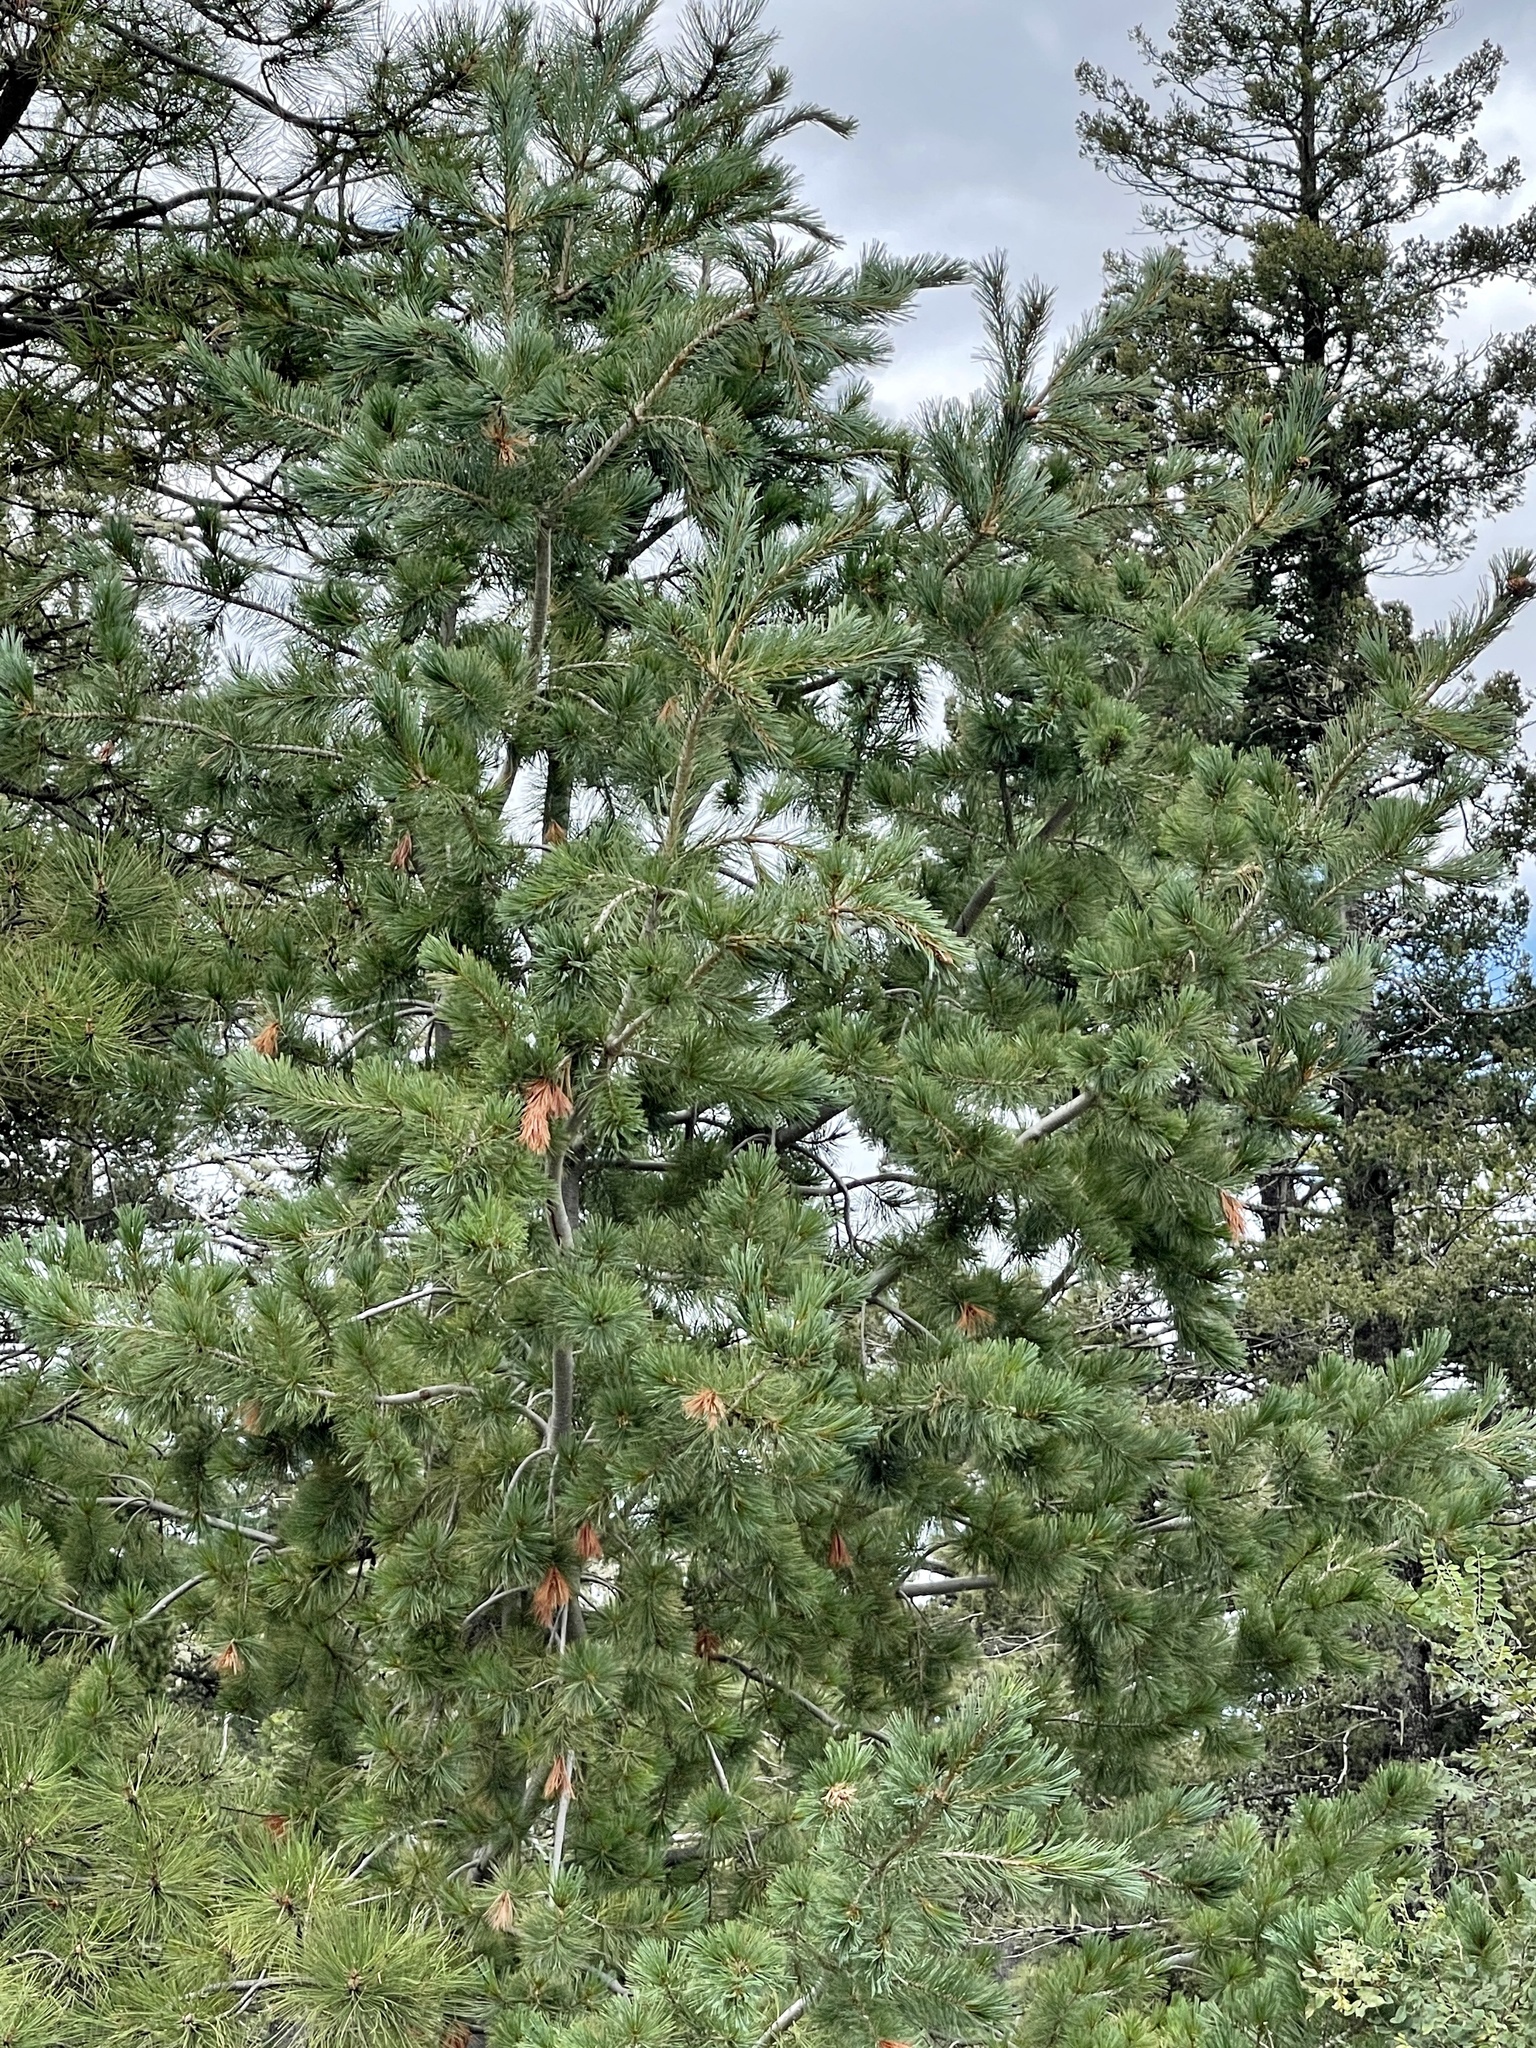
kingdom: Plantae
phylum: Tracheophyta
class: Pinopsida
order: Pinales
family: Pinaceae
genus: Pinus
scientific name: Pinus strobiformis
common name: Southwestern white pine
